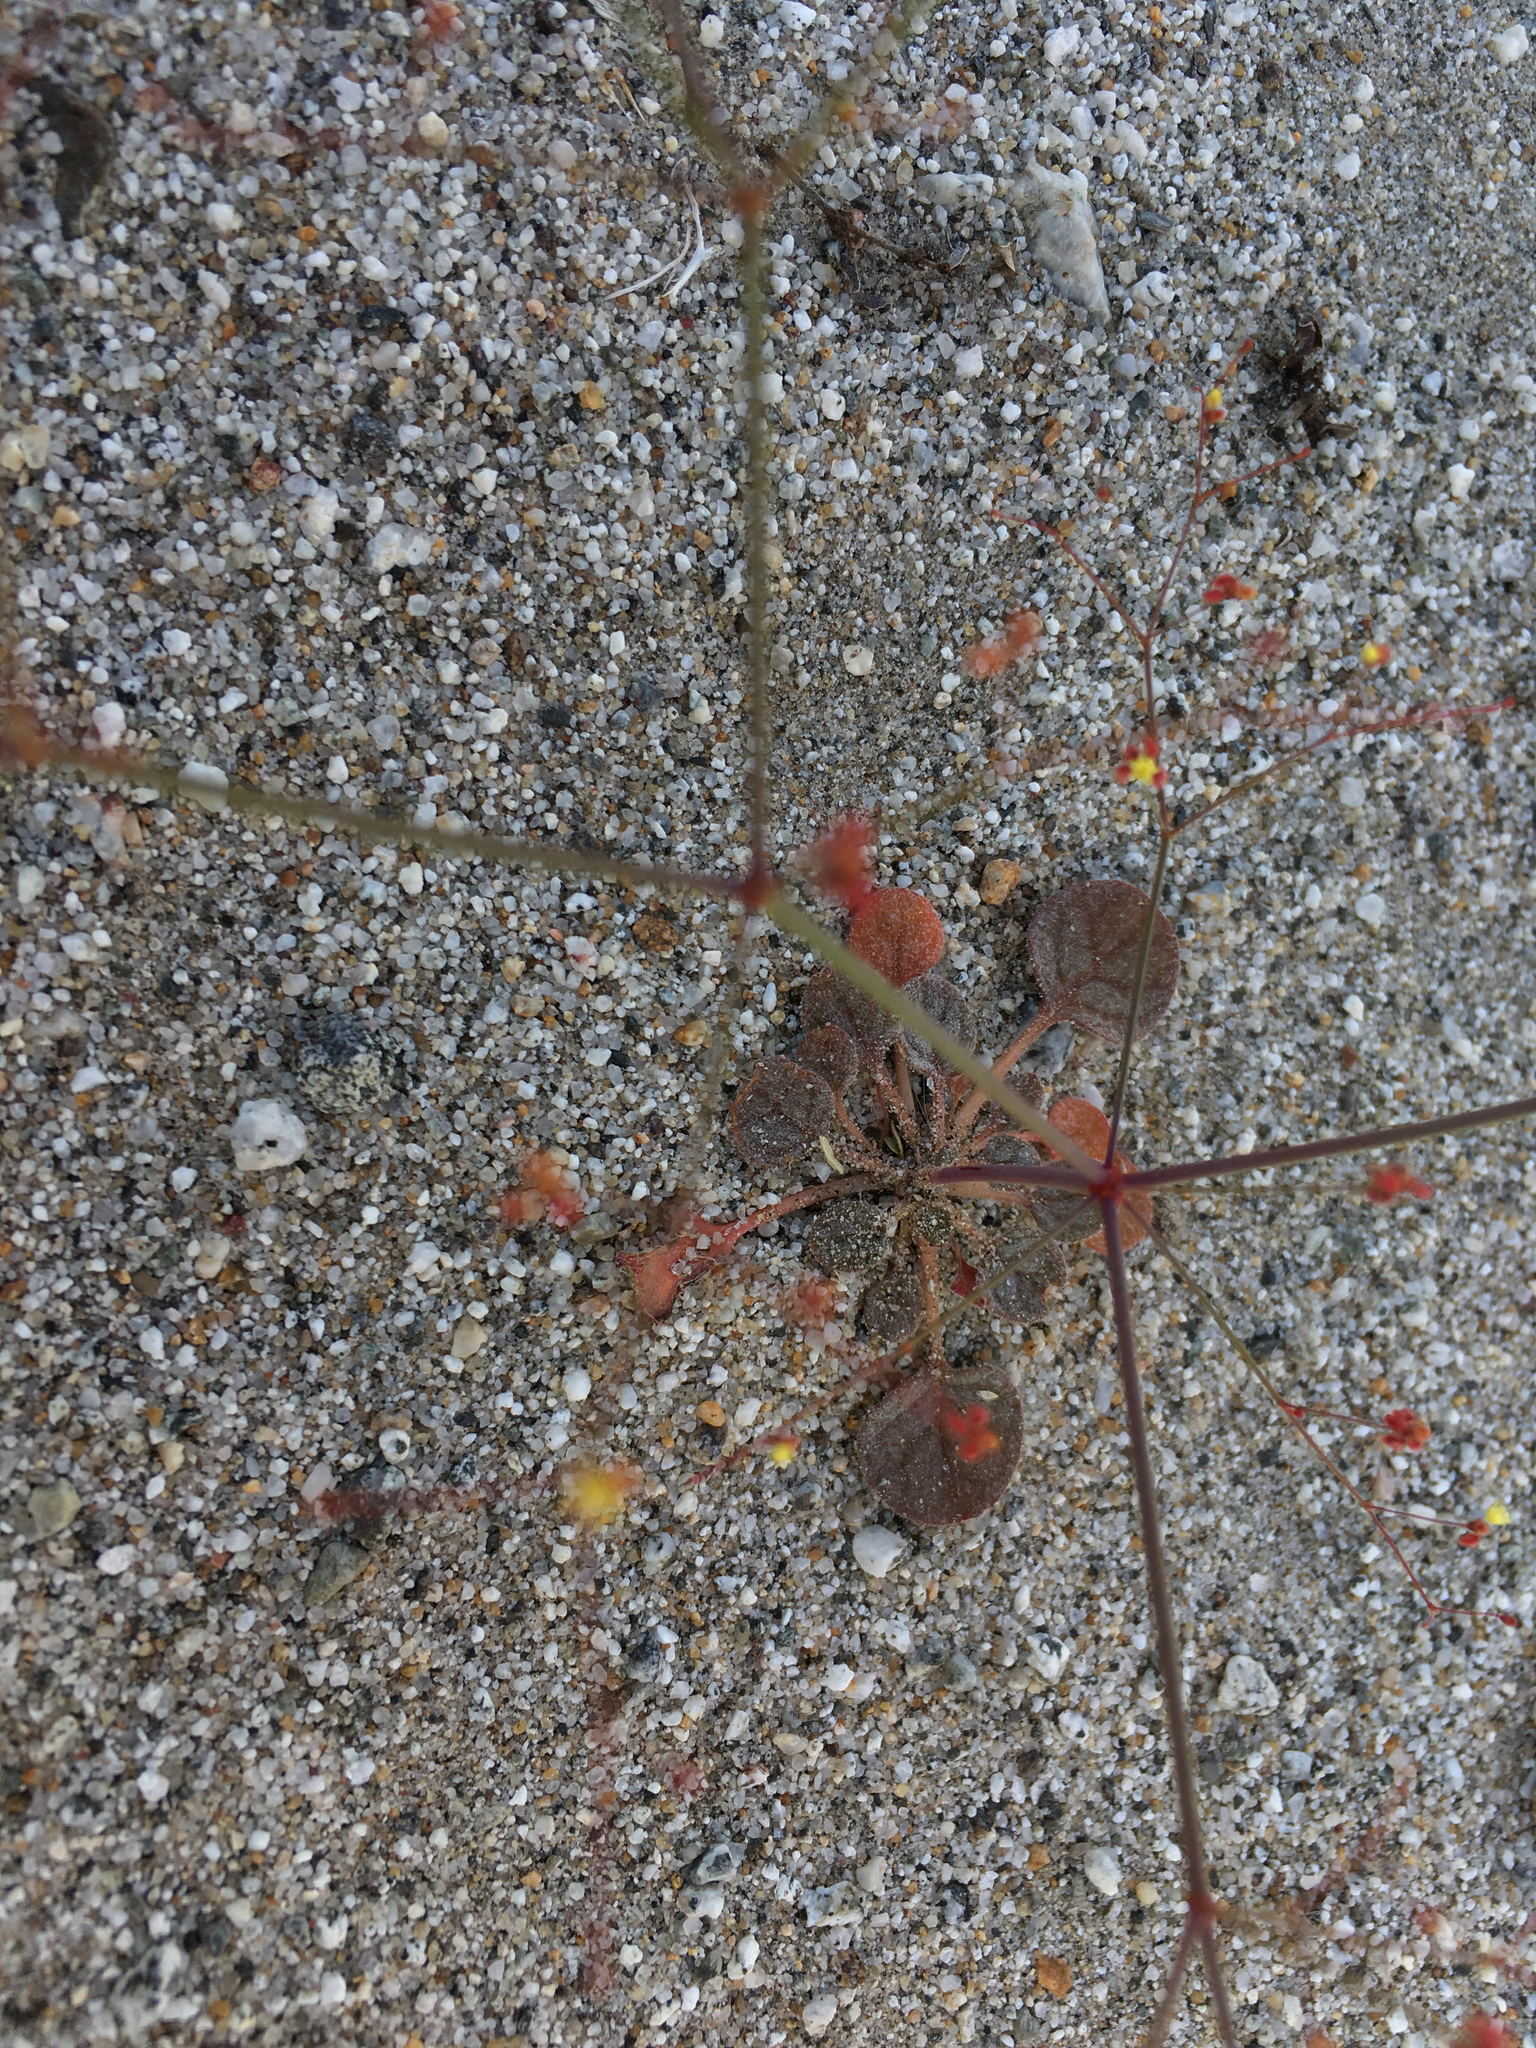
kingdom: Plantae
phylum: Tracheophyta
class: Magnoliopsida
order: Caryophyllales
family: Polygonaceae
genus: Eriogonum
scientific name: Eriogonum thomasii
